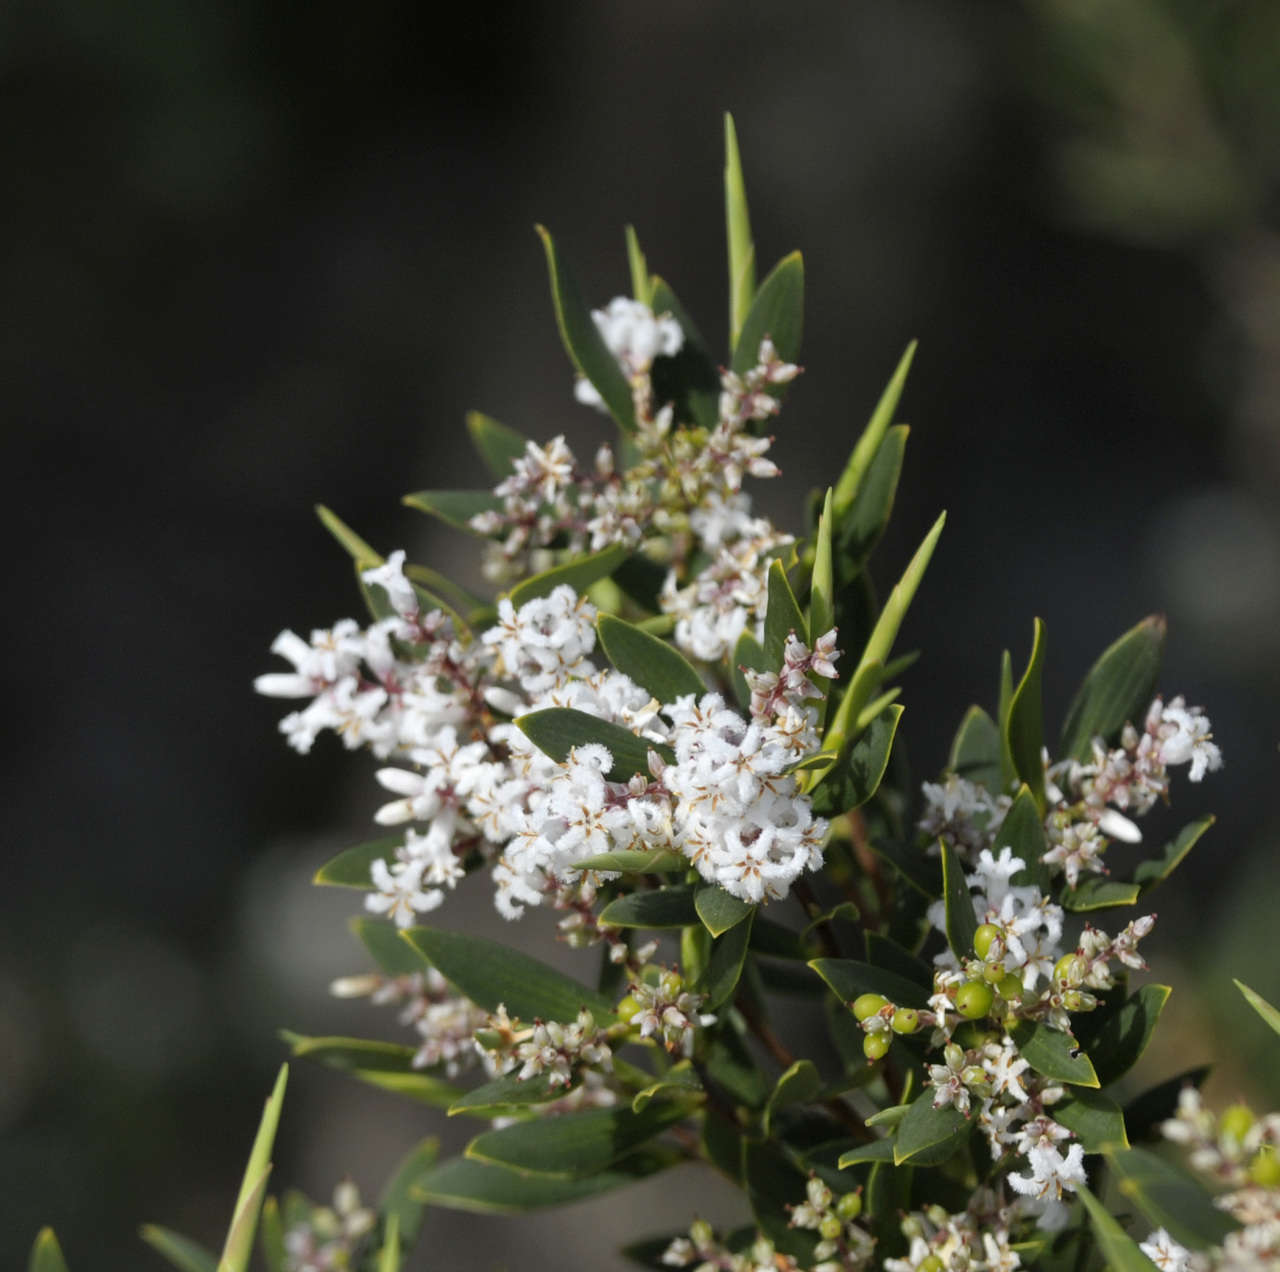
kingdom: Plantae
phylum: Tracheophyta
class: Magnoliopsida
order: Ericales
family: Ericaceae
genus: Leptecophylla
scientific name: Leptecophylla parvifolia
